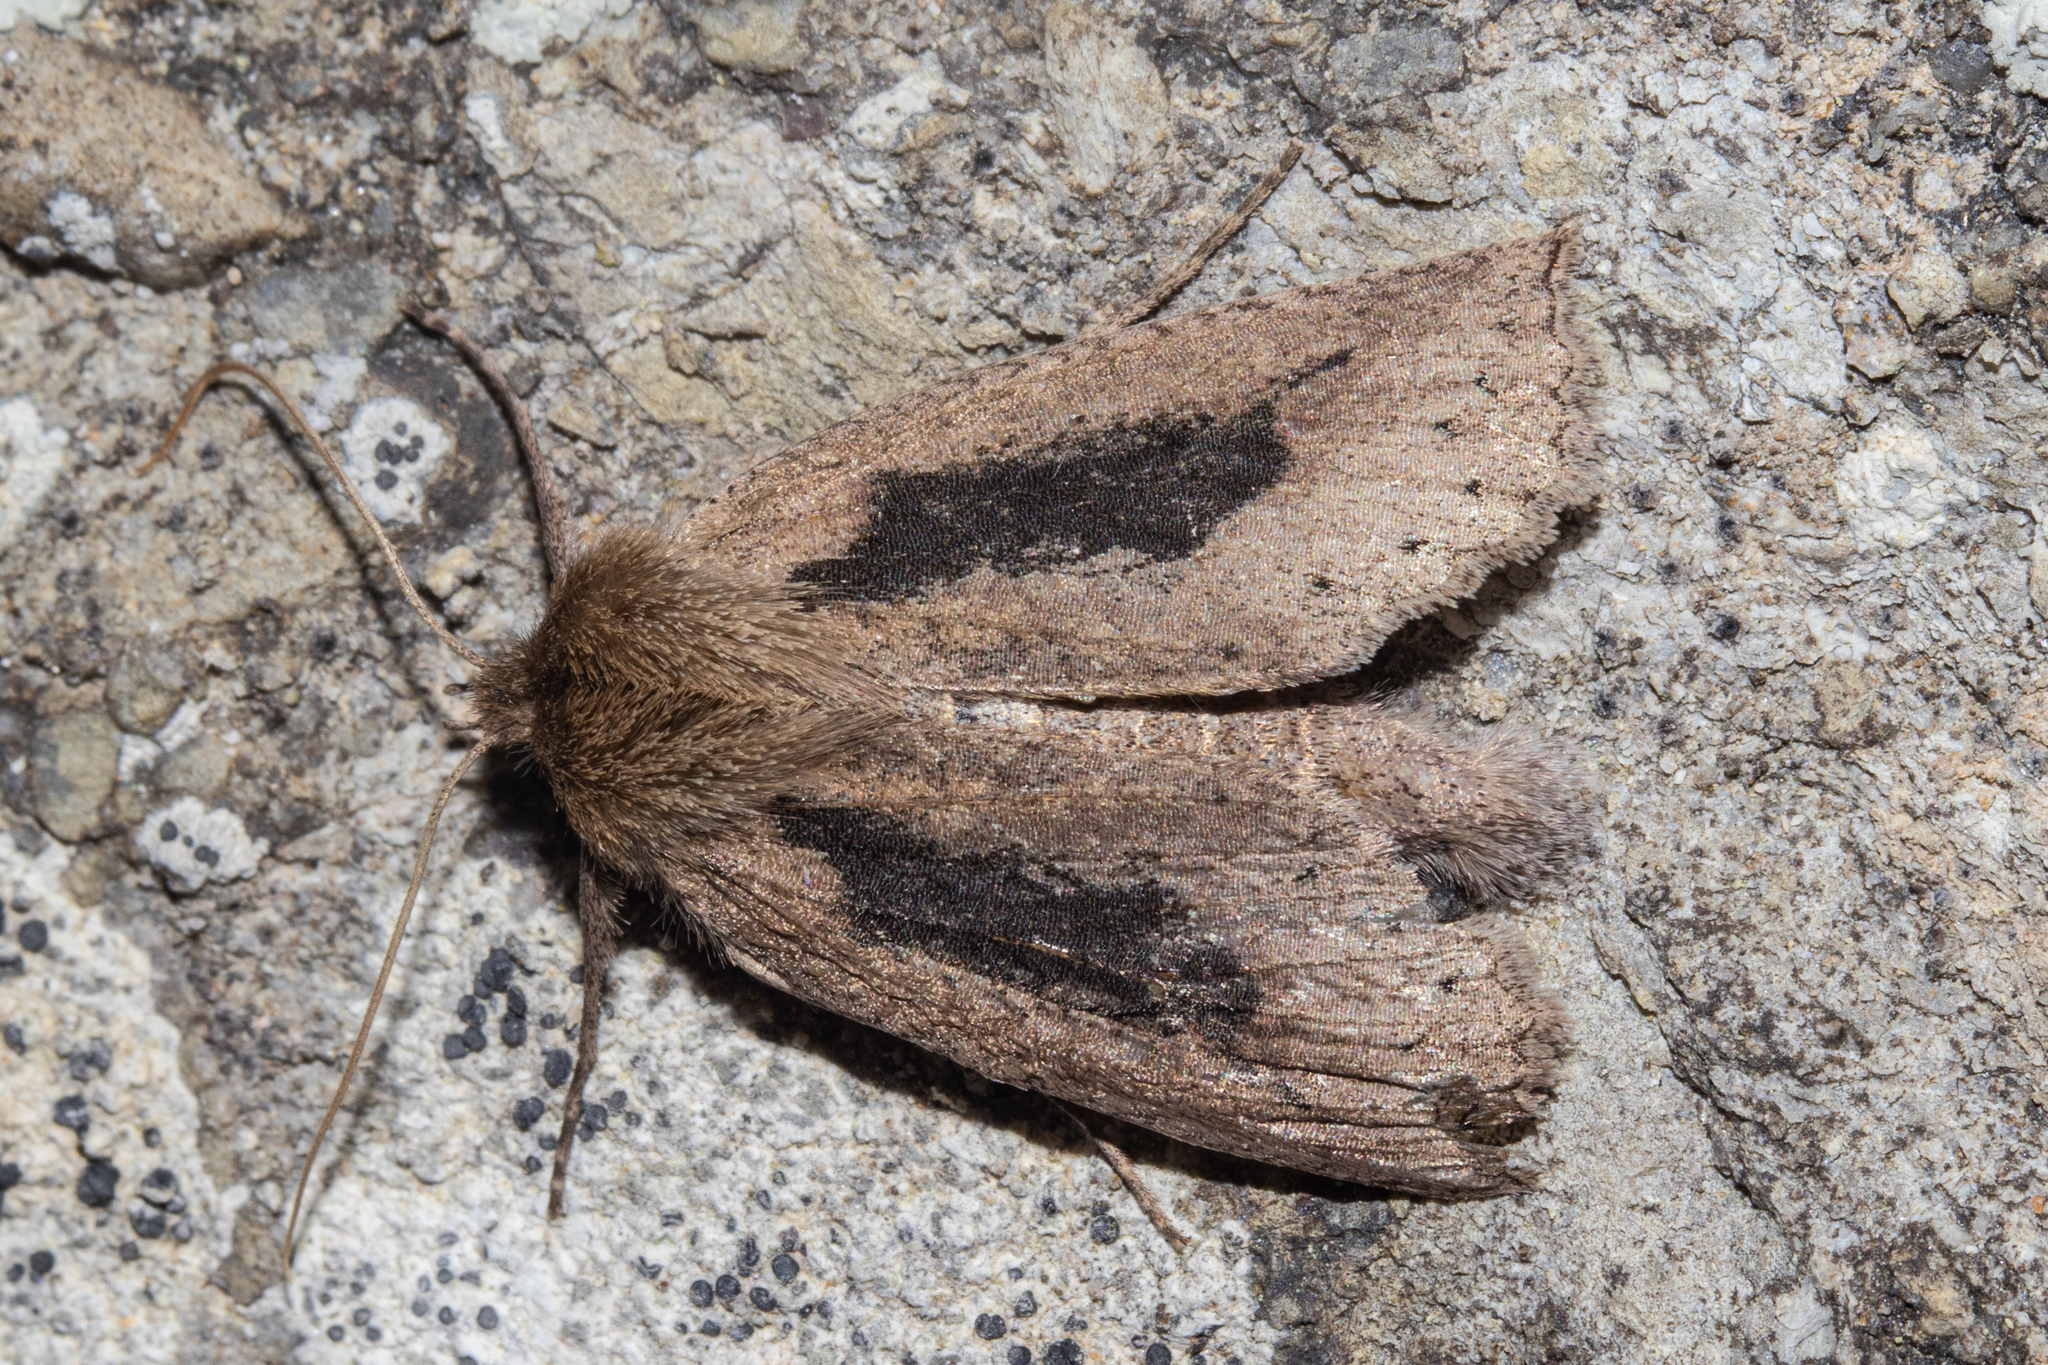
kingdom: Animalia
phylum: Arthropoda
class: Insecta
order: Lepidoptera
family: Geometridae
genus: Declana
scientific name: Declana leptomera
